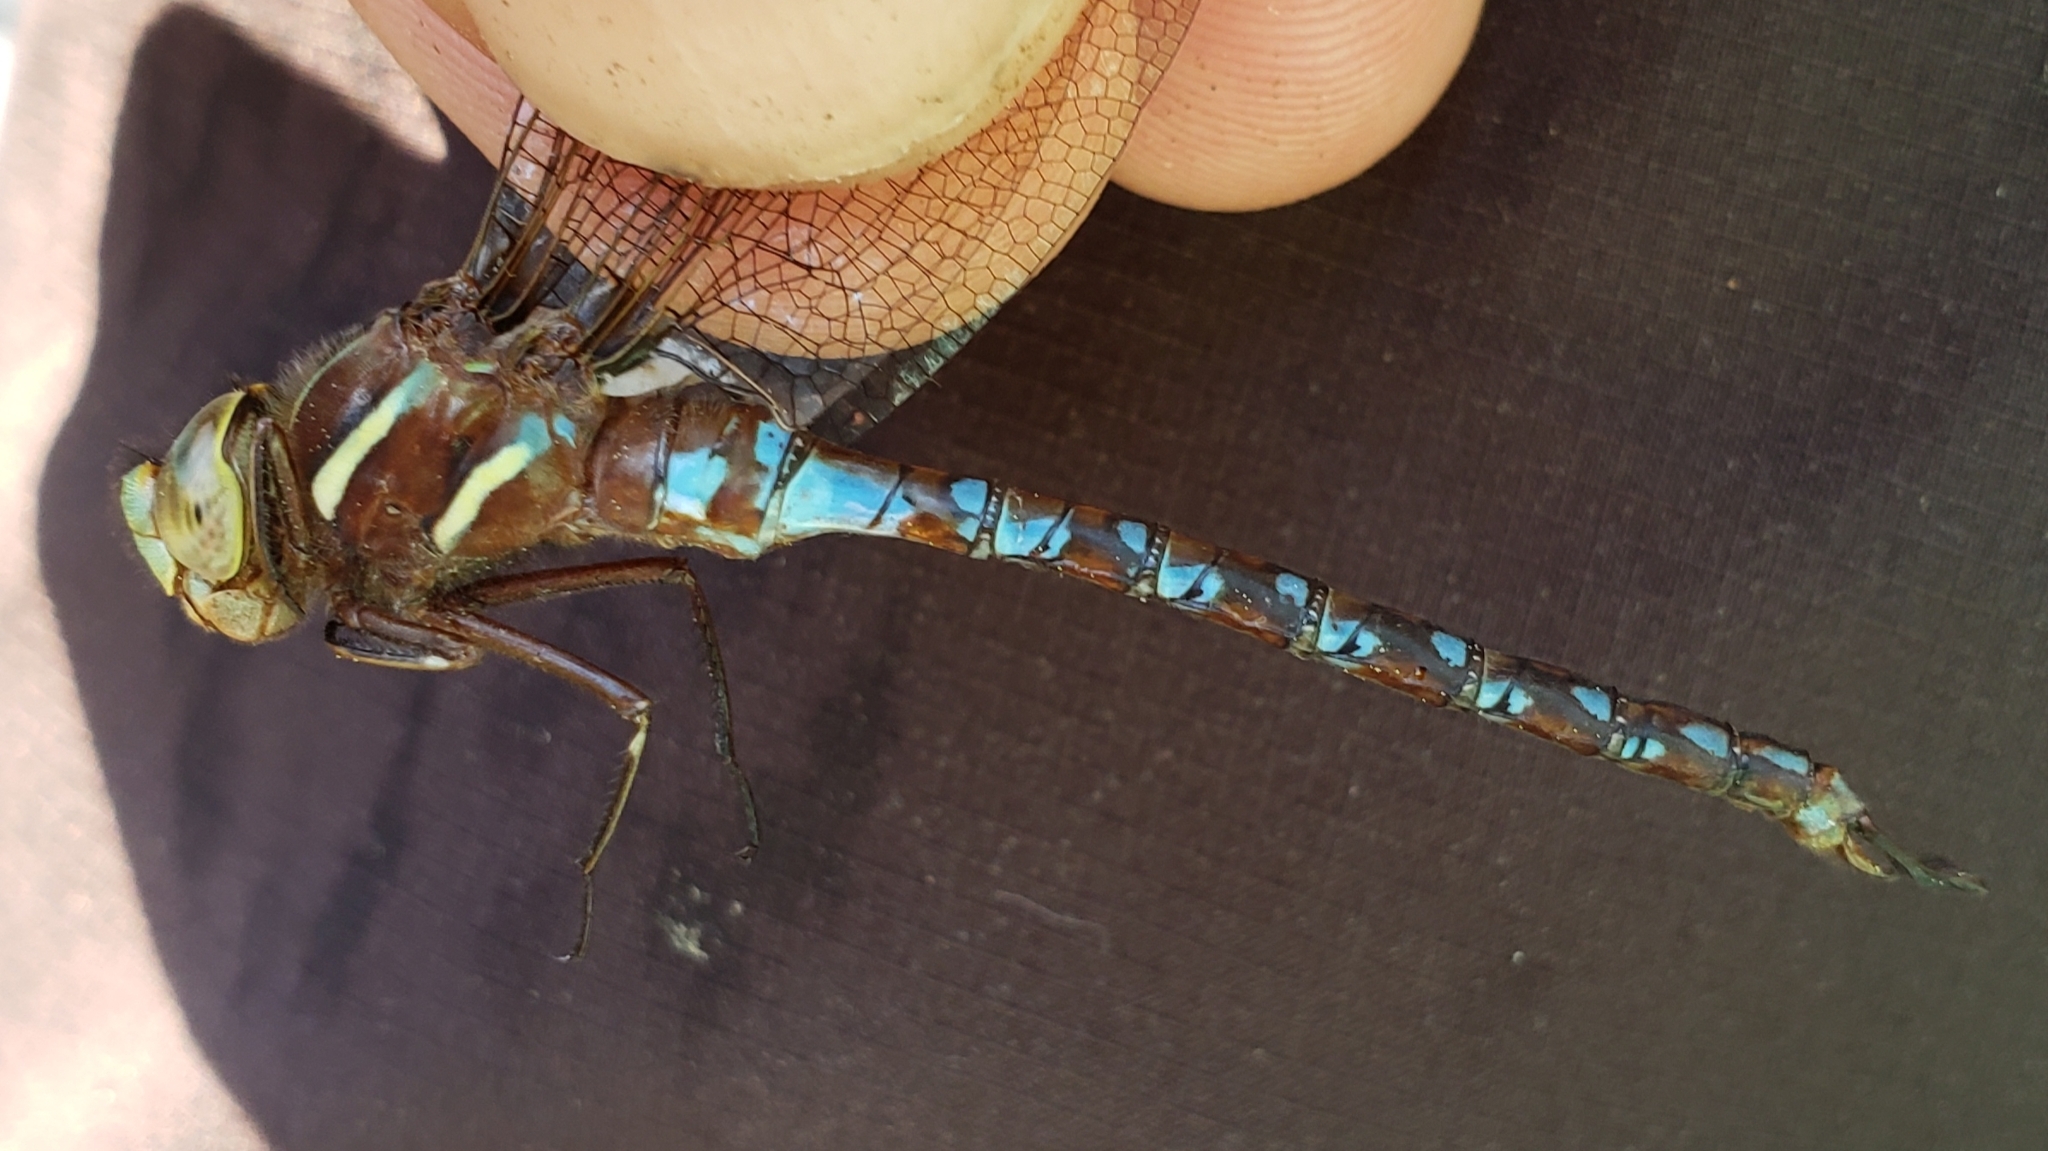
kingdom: Animalia
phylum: Arthropoda
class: Insecta
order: Odonata
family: Aeshnidae
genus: Basiaeschna
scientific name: Basiaeschna janata
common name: Springtime darner
